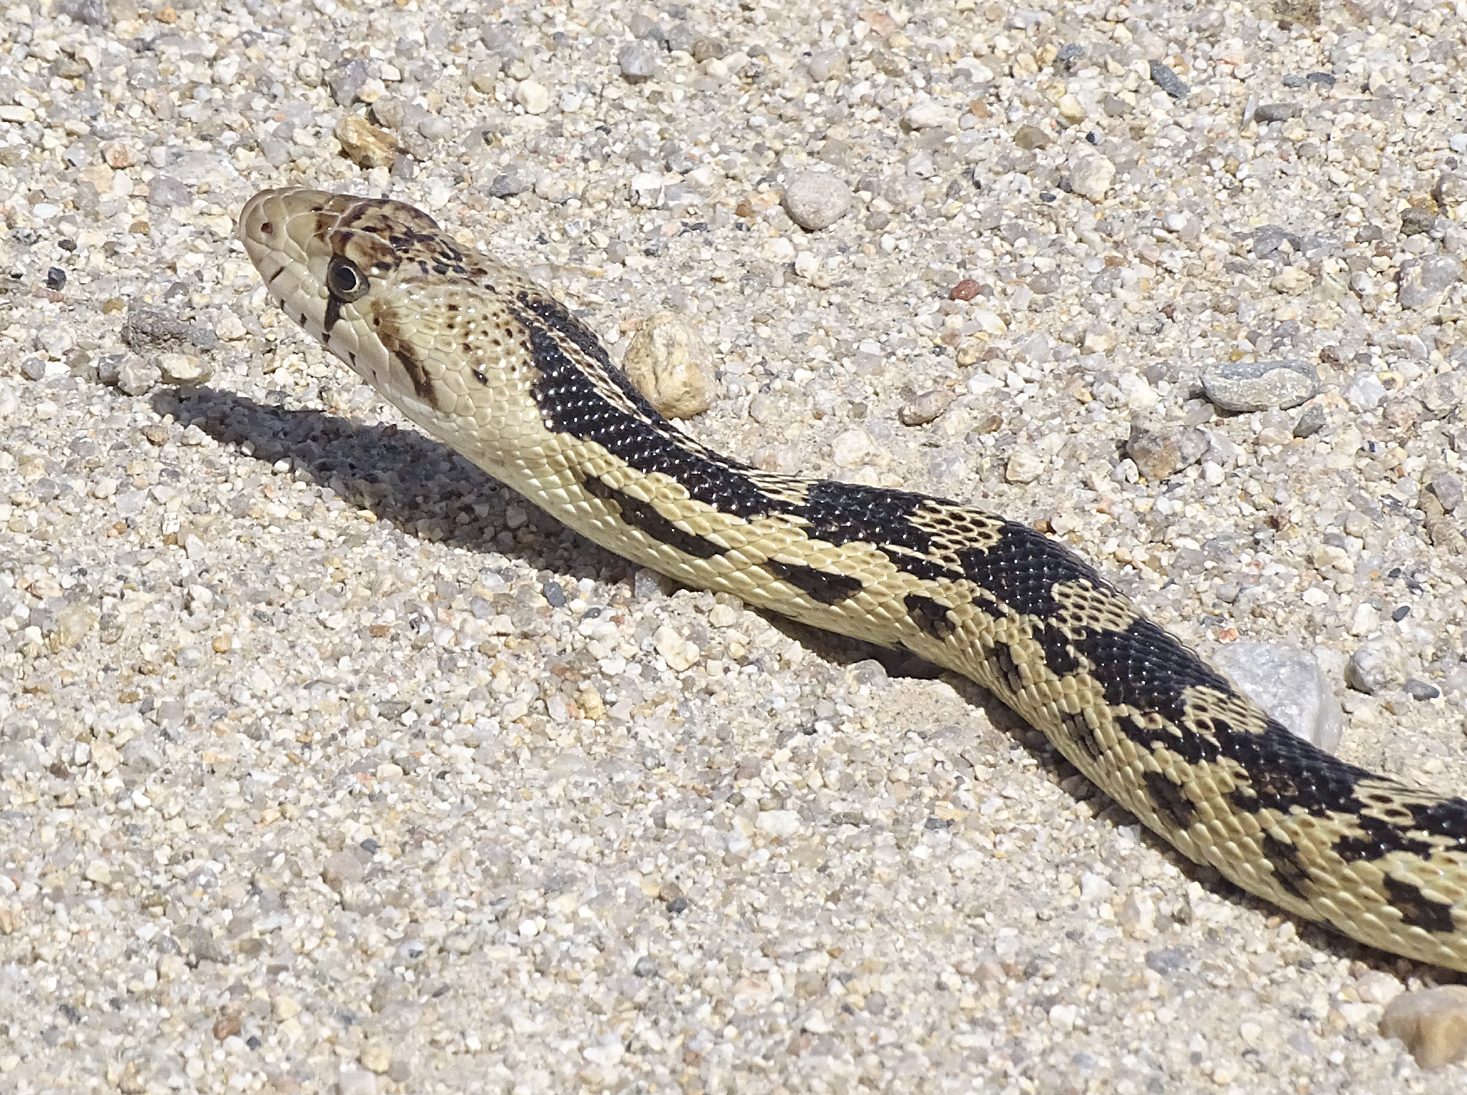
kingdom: Animalia
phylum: Chordata
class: Squamata
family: Colubridae
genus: Pituophis
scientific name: Pituophis catenifer
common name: Gopher snake
